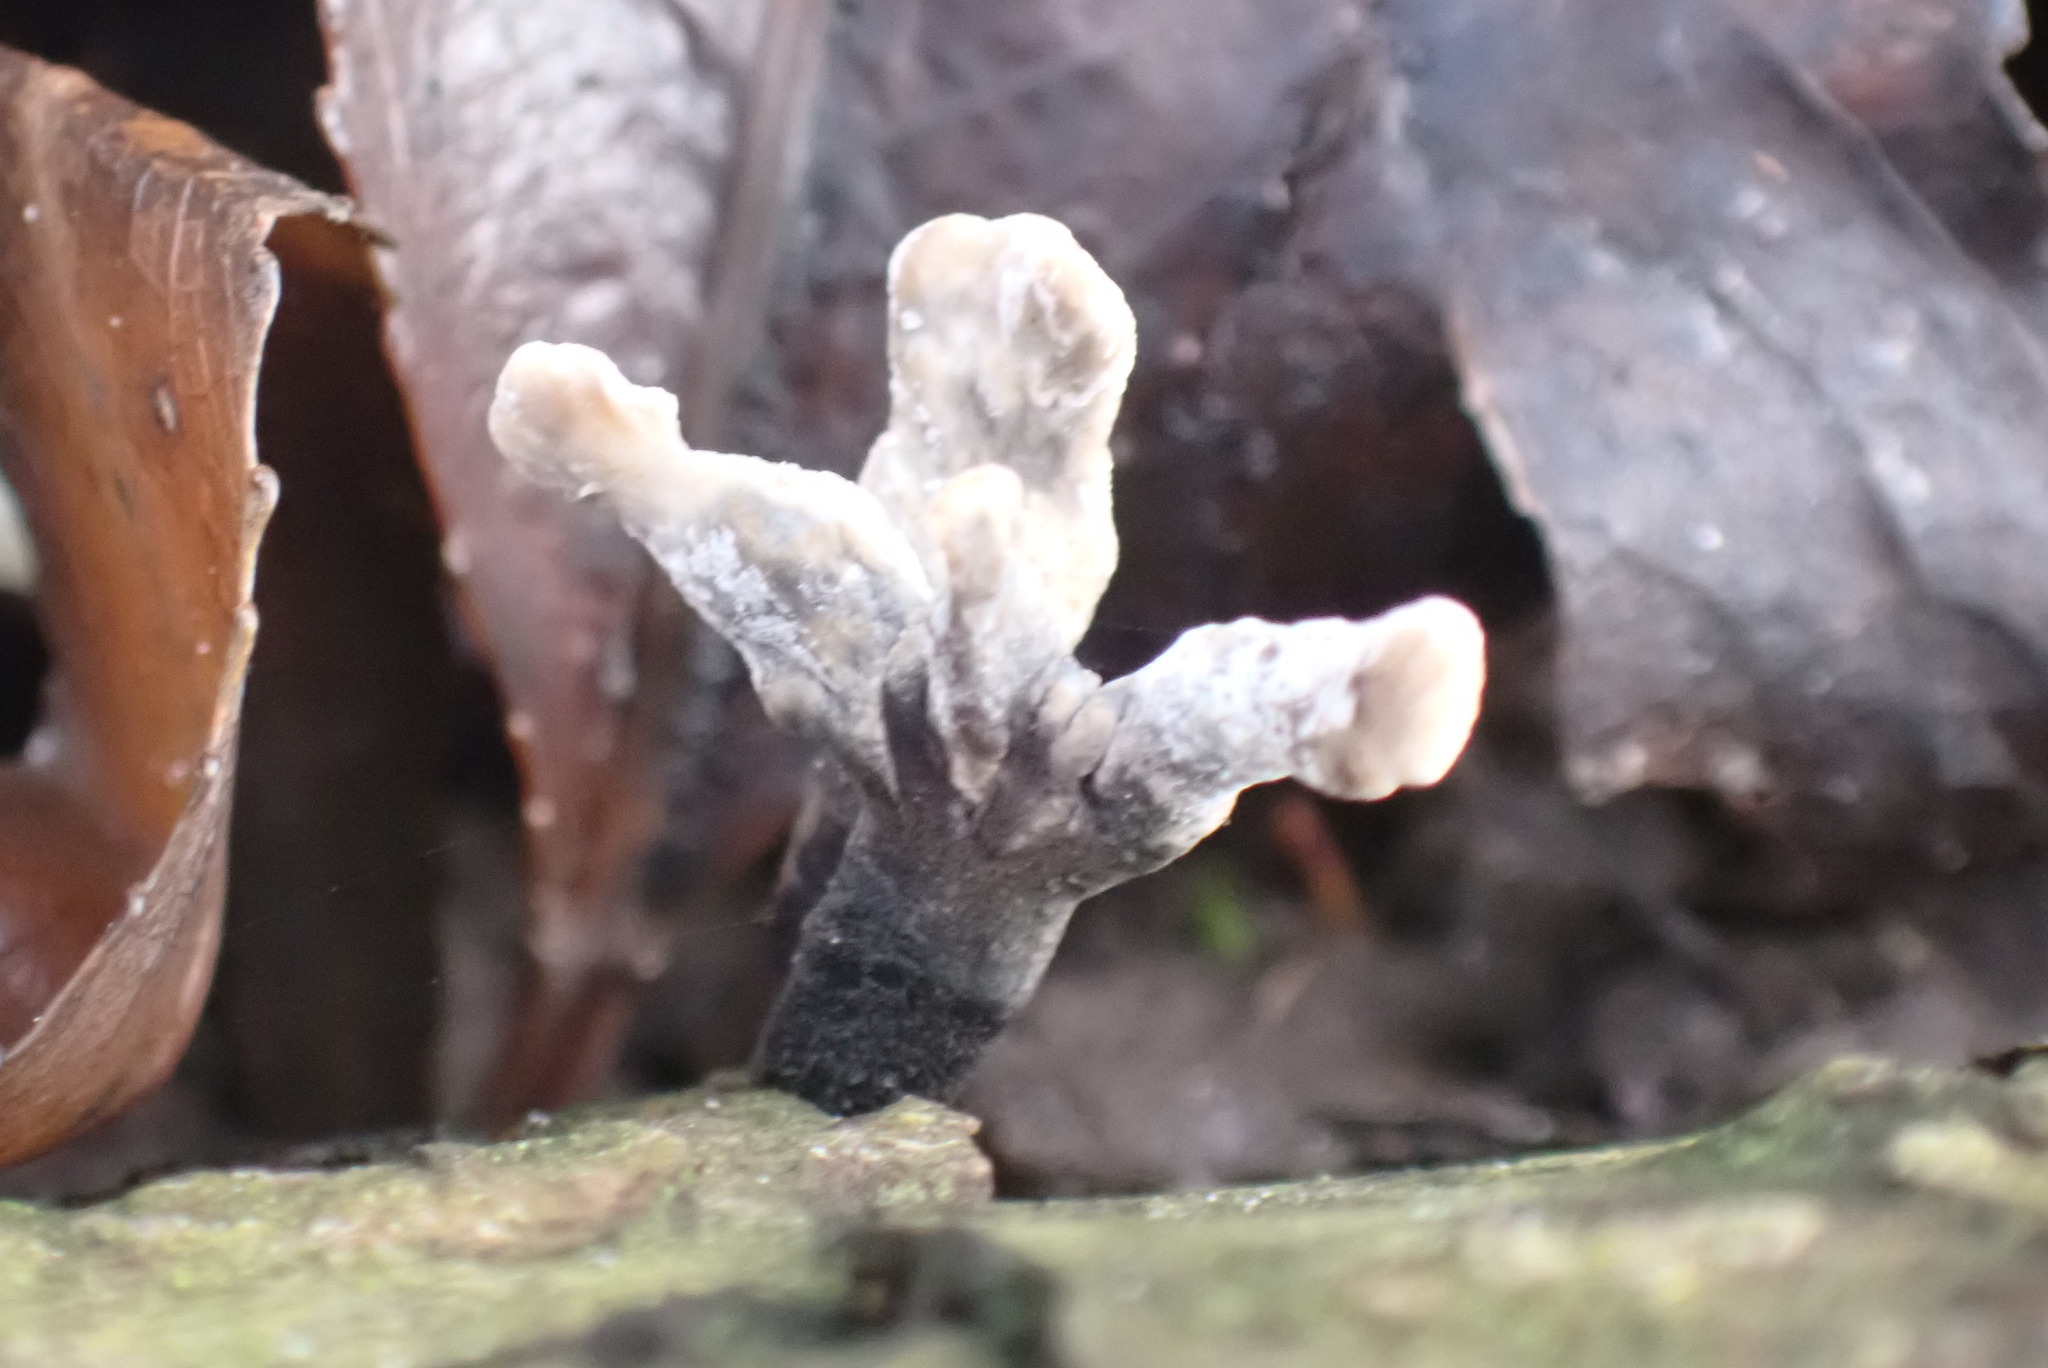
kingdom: Fungi
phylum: Ascomycota
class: Sordariomycetes
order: Xylariales
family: Xylariaceae
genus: Xylaria
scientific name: Xylaria hypoxylon
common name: Candle-snuff fungus
